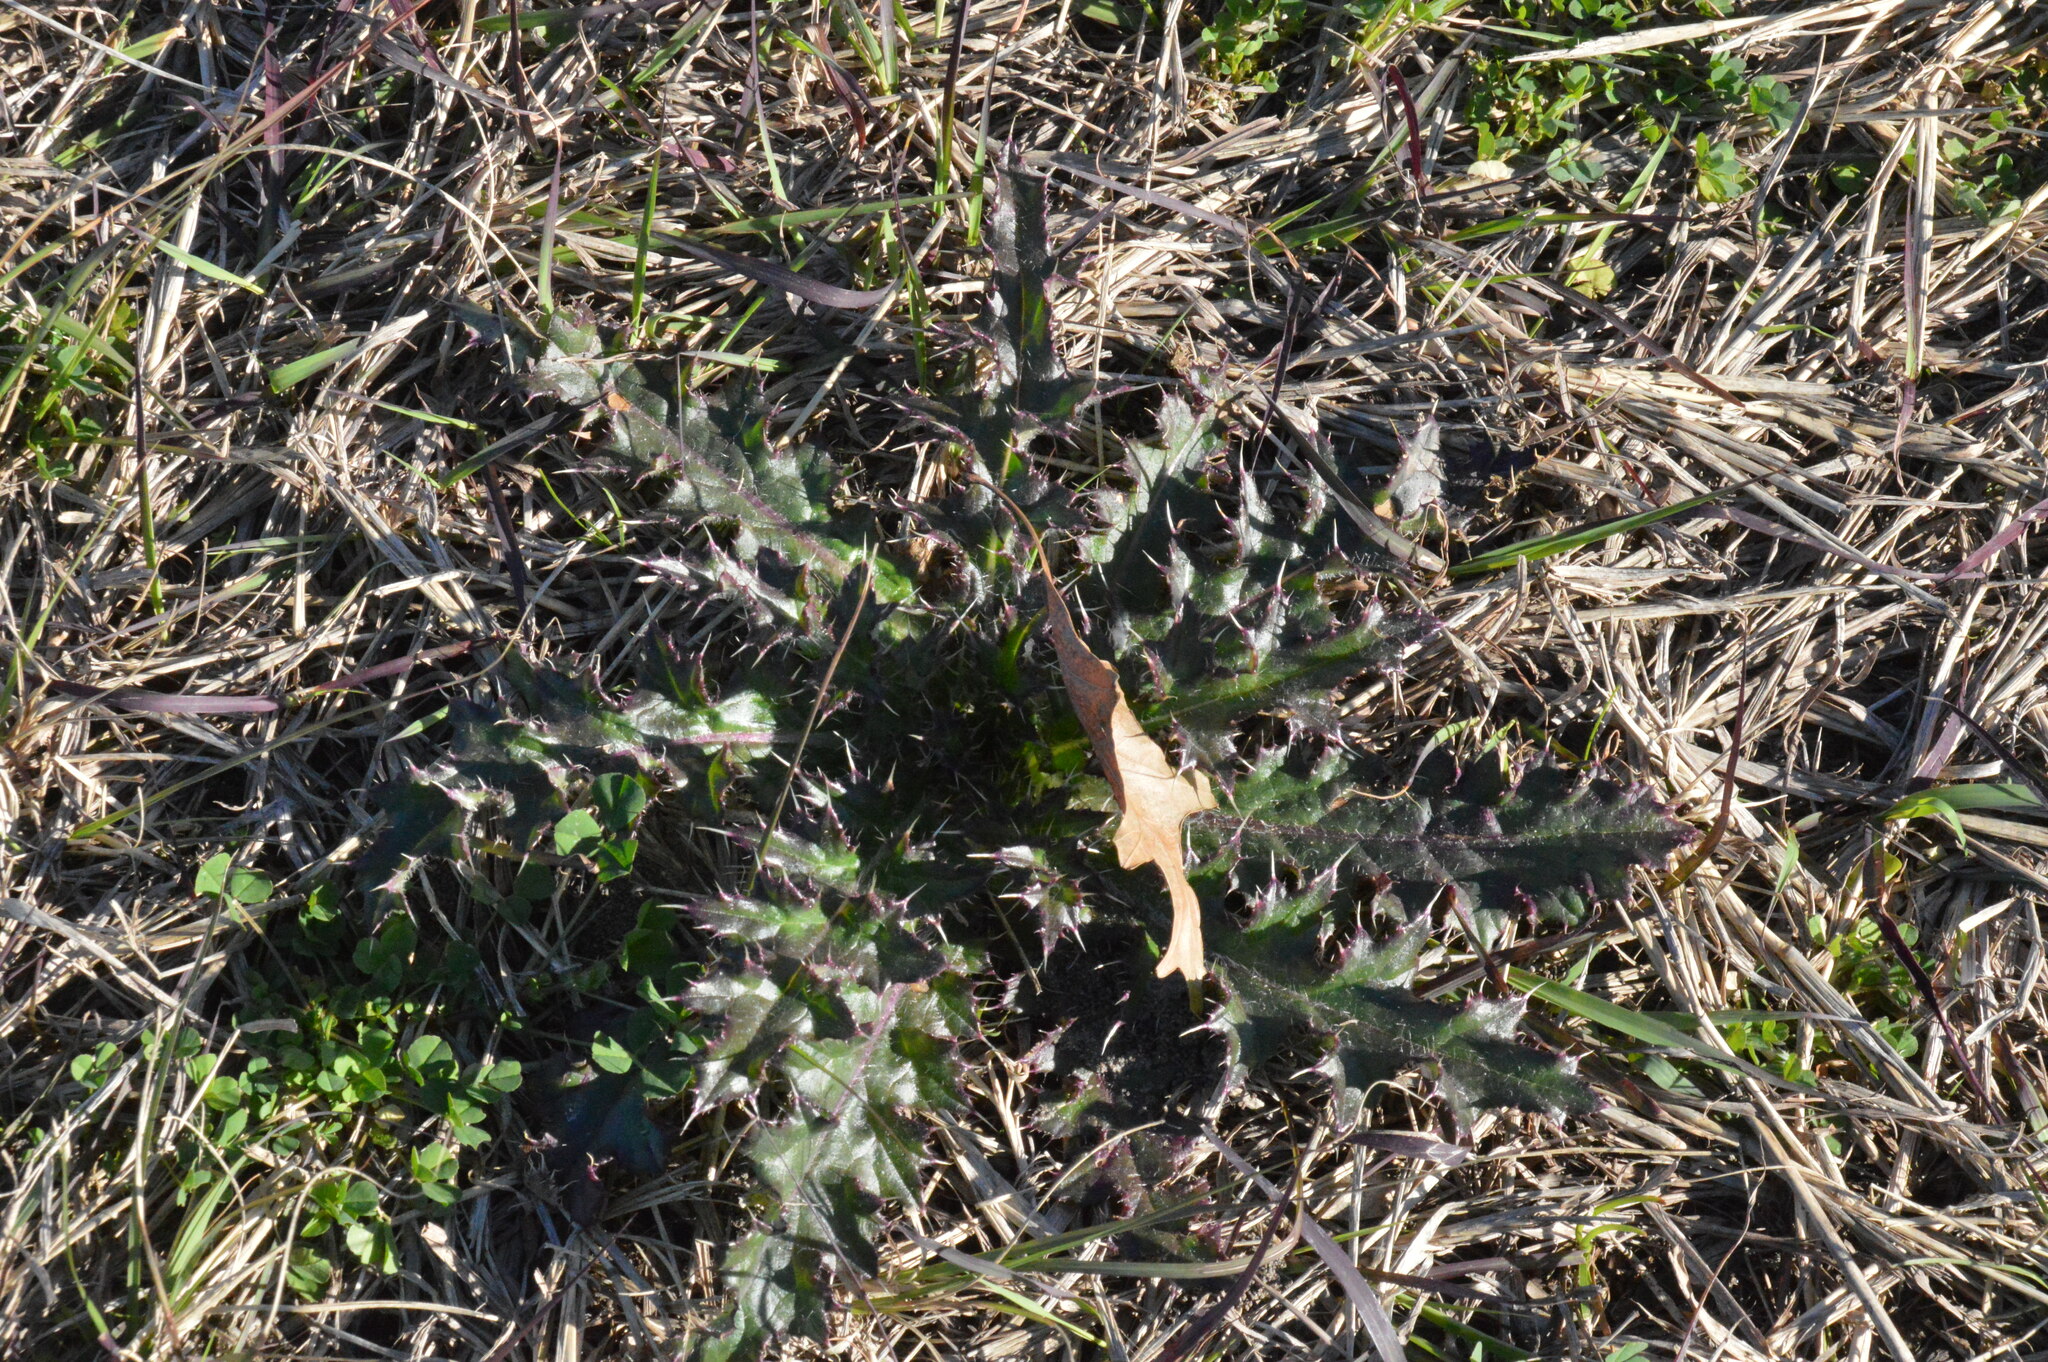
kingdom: Plantae
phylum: Tracheophyta
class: Magnoliopsida
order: Asterales
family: Asteraceae
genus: Cirsium
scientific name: Cirsium horridulum
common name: Bristly thistle
